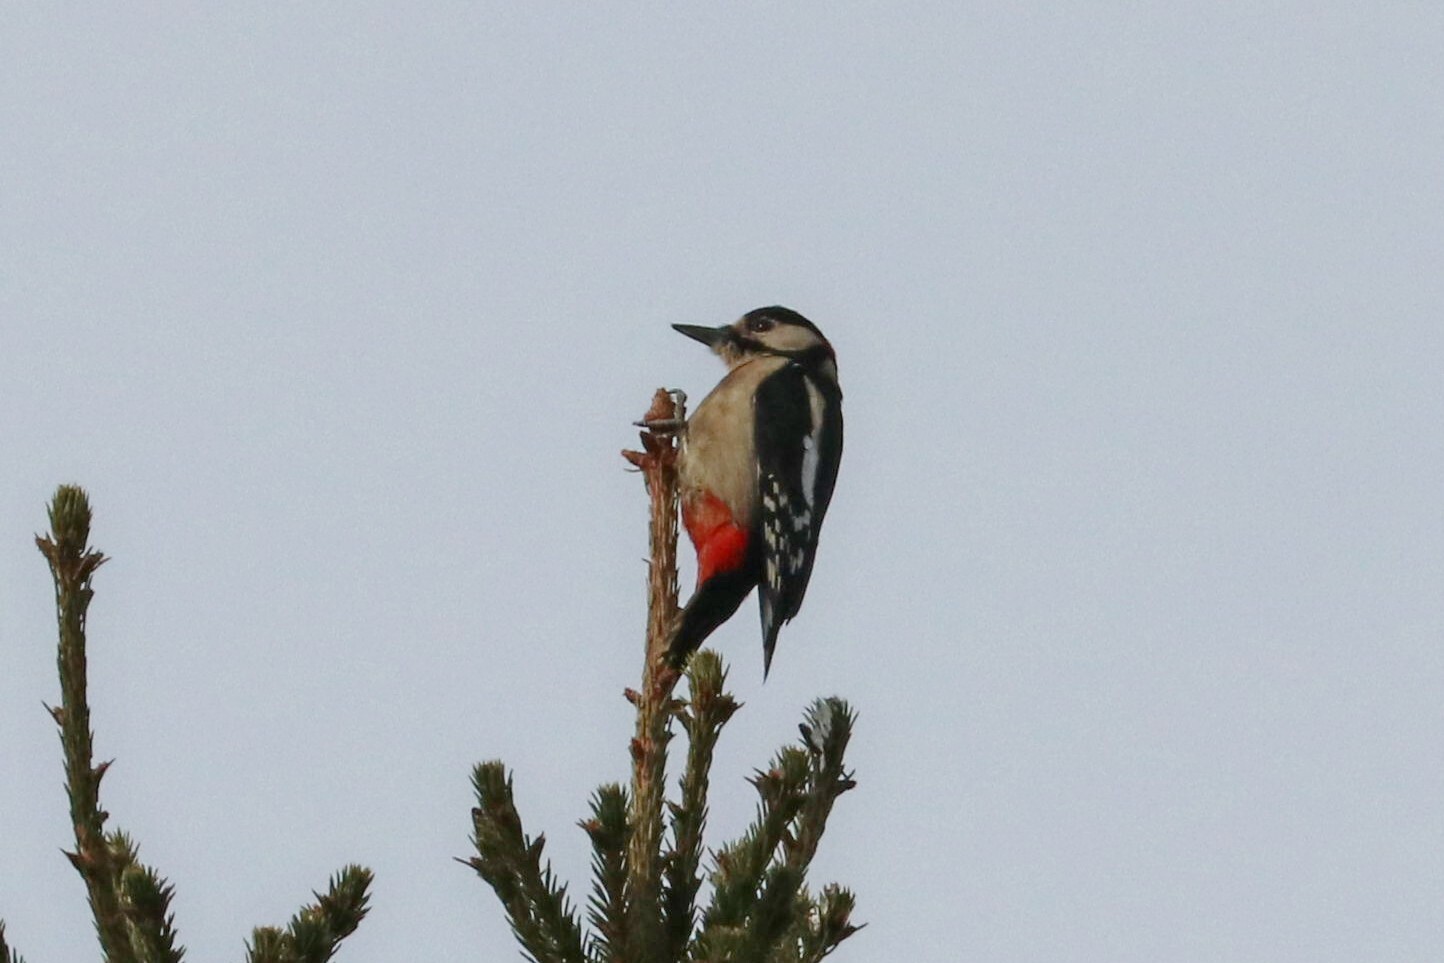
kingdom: Animalia
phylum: Chordata
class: Aves
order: Piciformes
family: Picidae
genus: Dendrocopos
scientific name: Dendrocopos major
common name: Great spotted woodpecker
